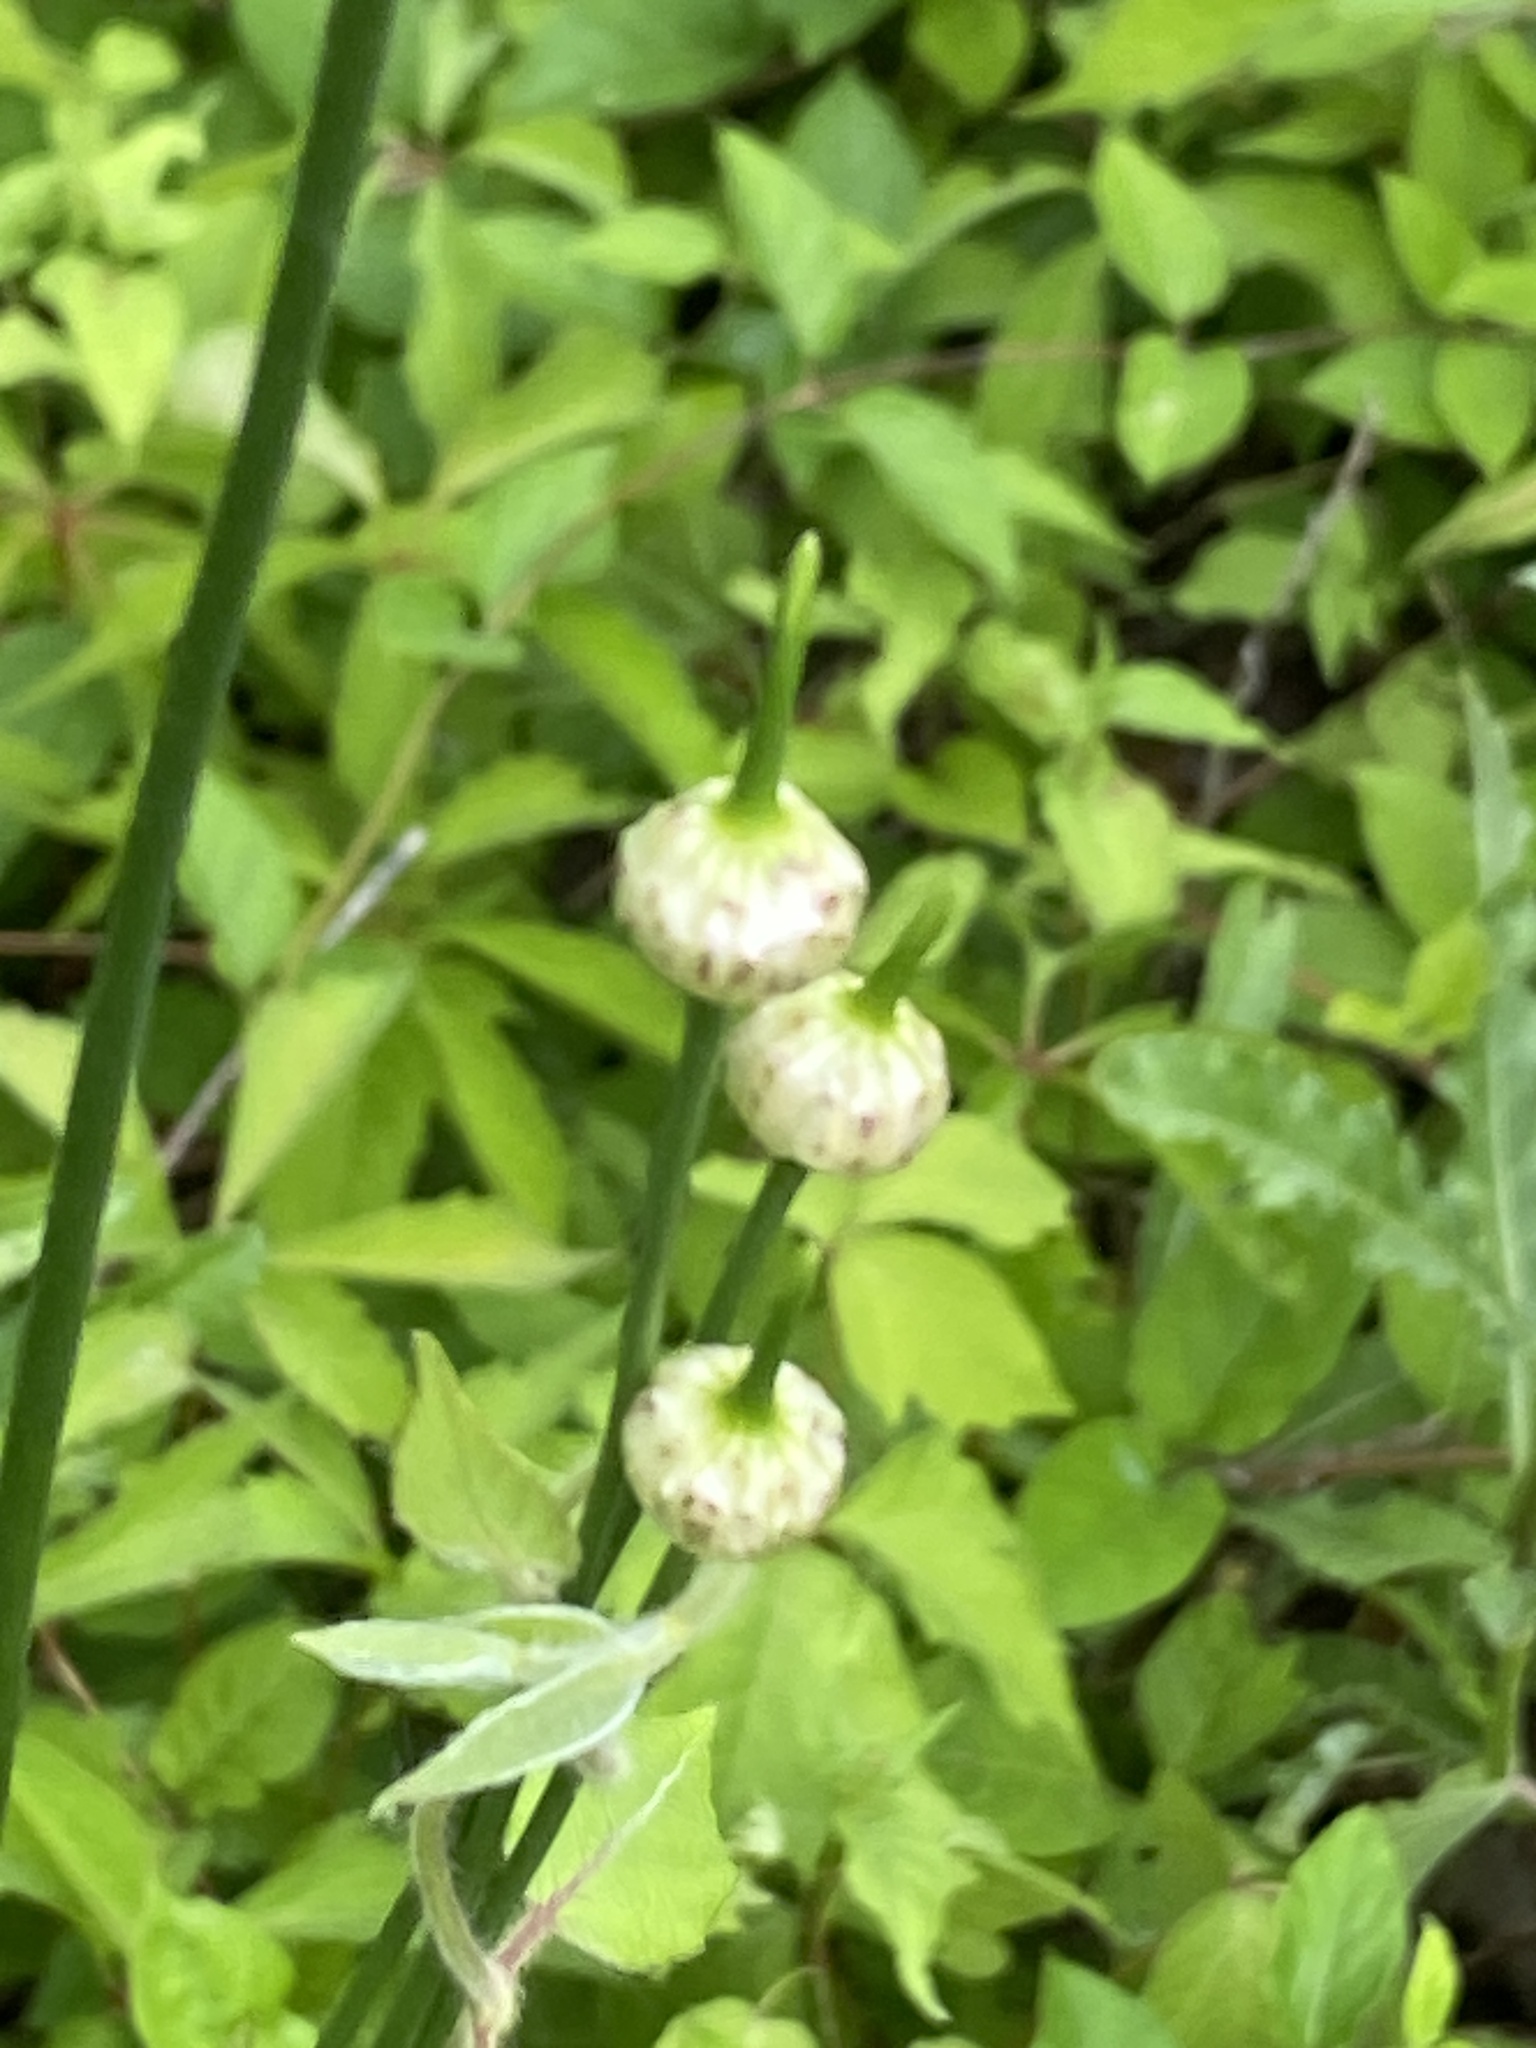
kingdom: Plantae
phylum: Tracheophyta
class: Liliopsida
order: Asparagales
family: Amaryllidaceae
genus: Allium
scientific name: Allium vineale
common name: Crow garlic
